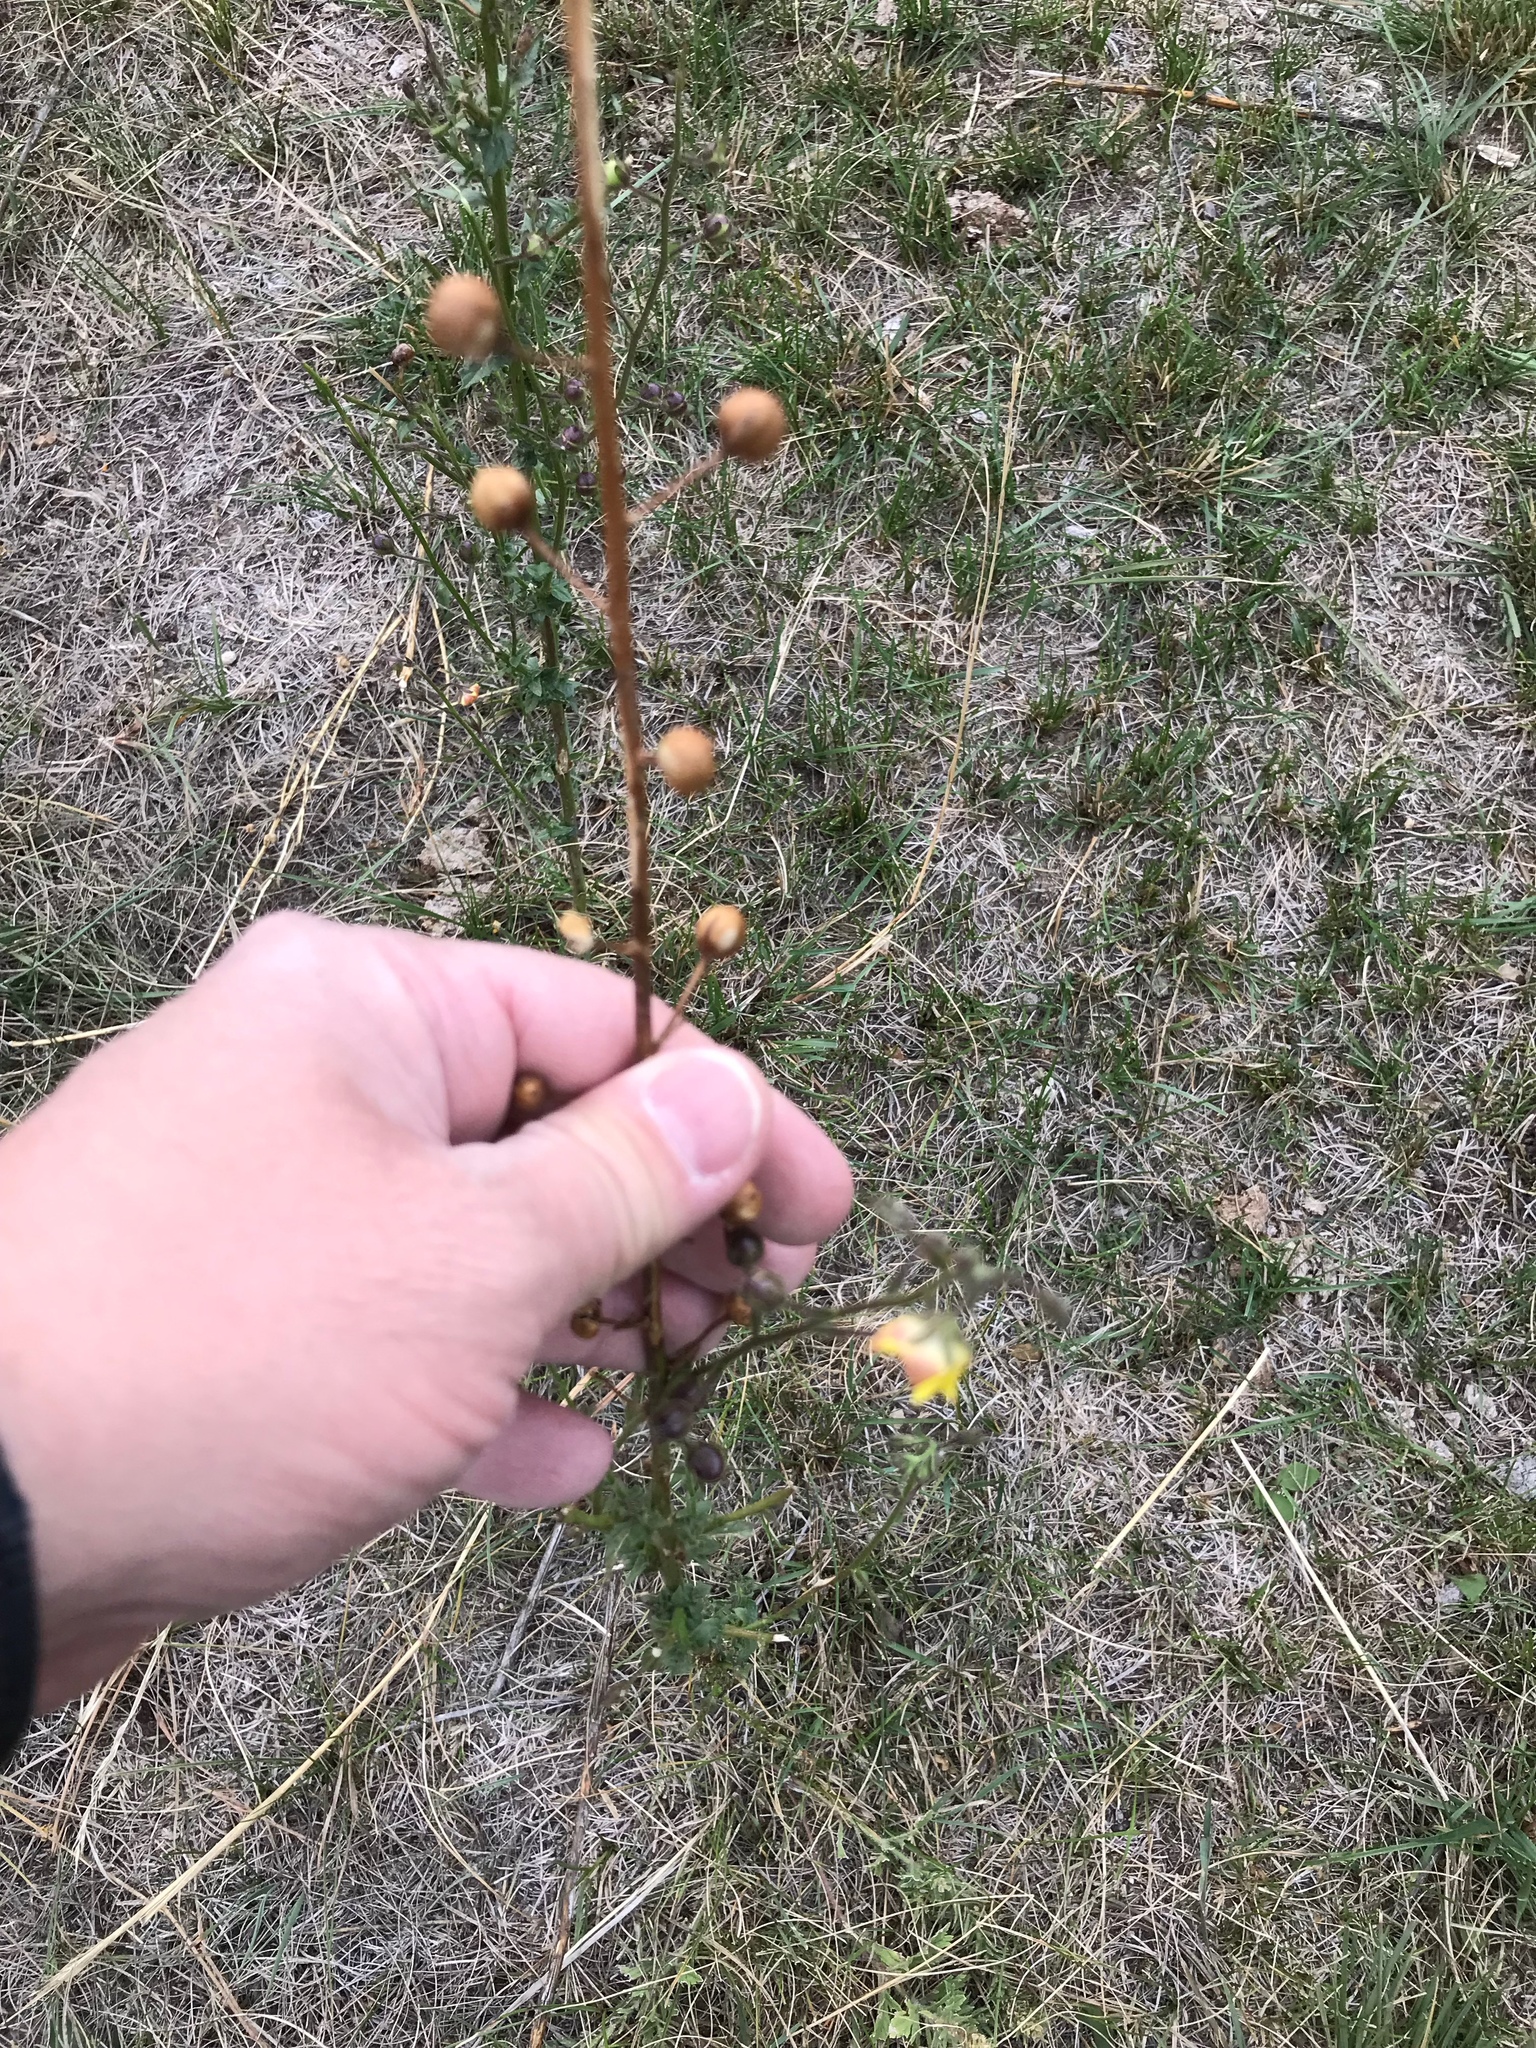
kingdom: Plantae
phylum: Tracheophyta
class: Magnoliopsida
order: Lamiales
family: Scrophulariaceae
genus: Verbascum
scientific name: Verbascum blattaria
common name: Moth mullein
